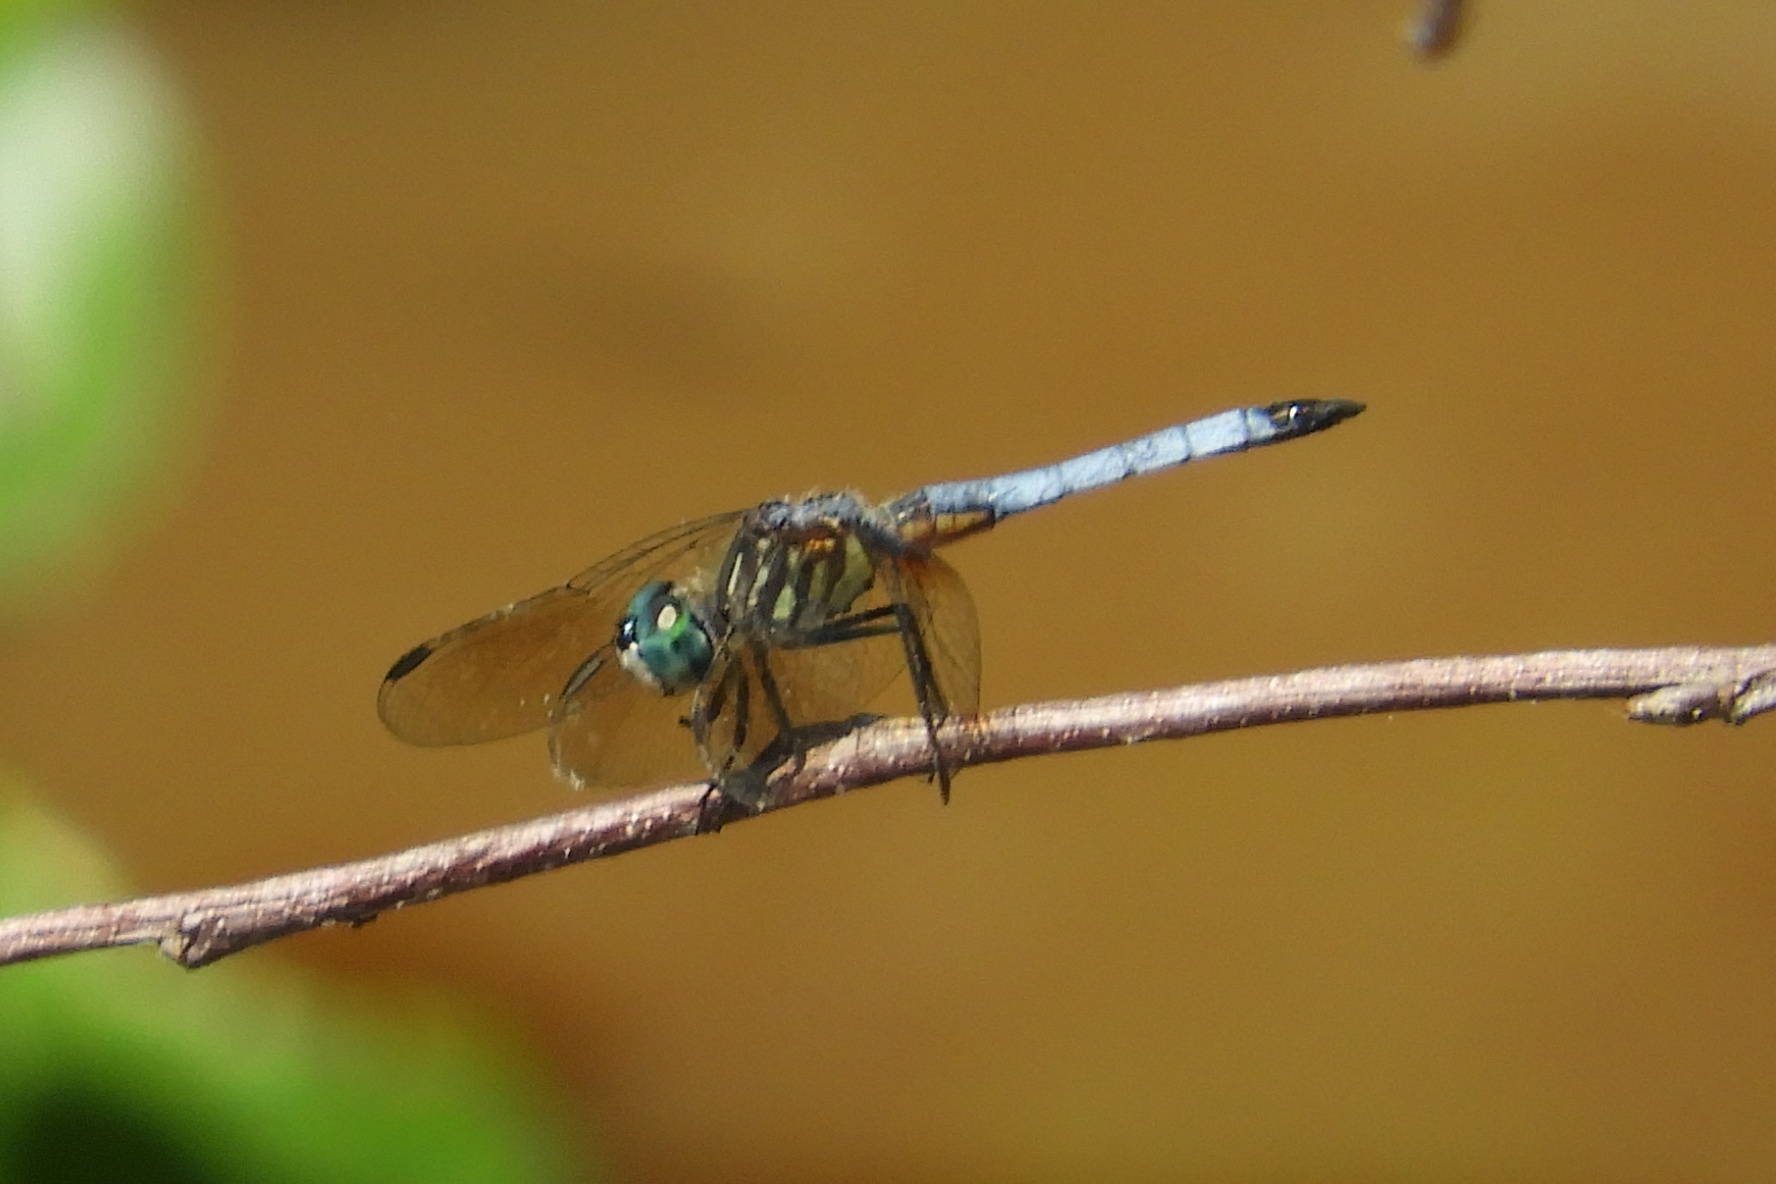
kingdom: Animalia
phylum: Arthropoda
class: Insecta
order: Odonata
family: Libellulidae
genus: Pachydiplax
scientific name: Pachydiplax longipennis
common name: Blue dasher
